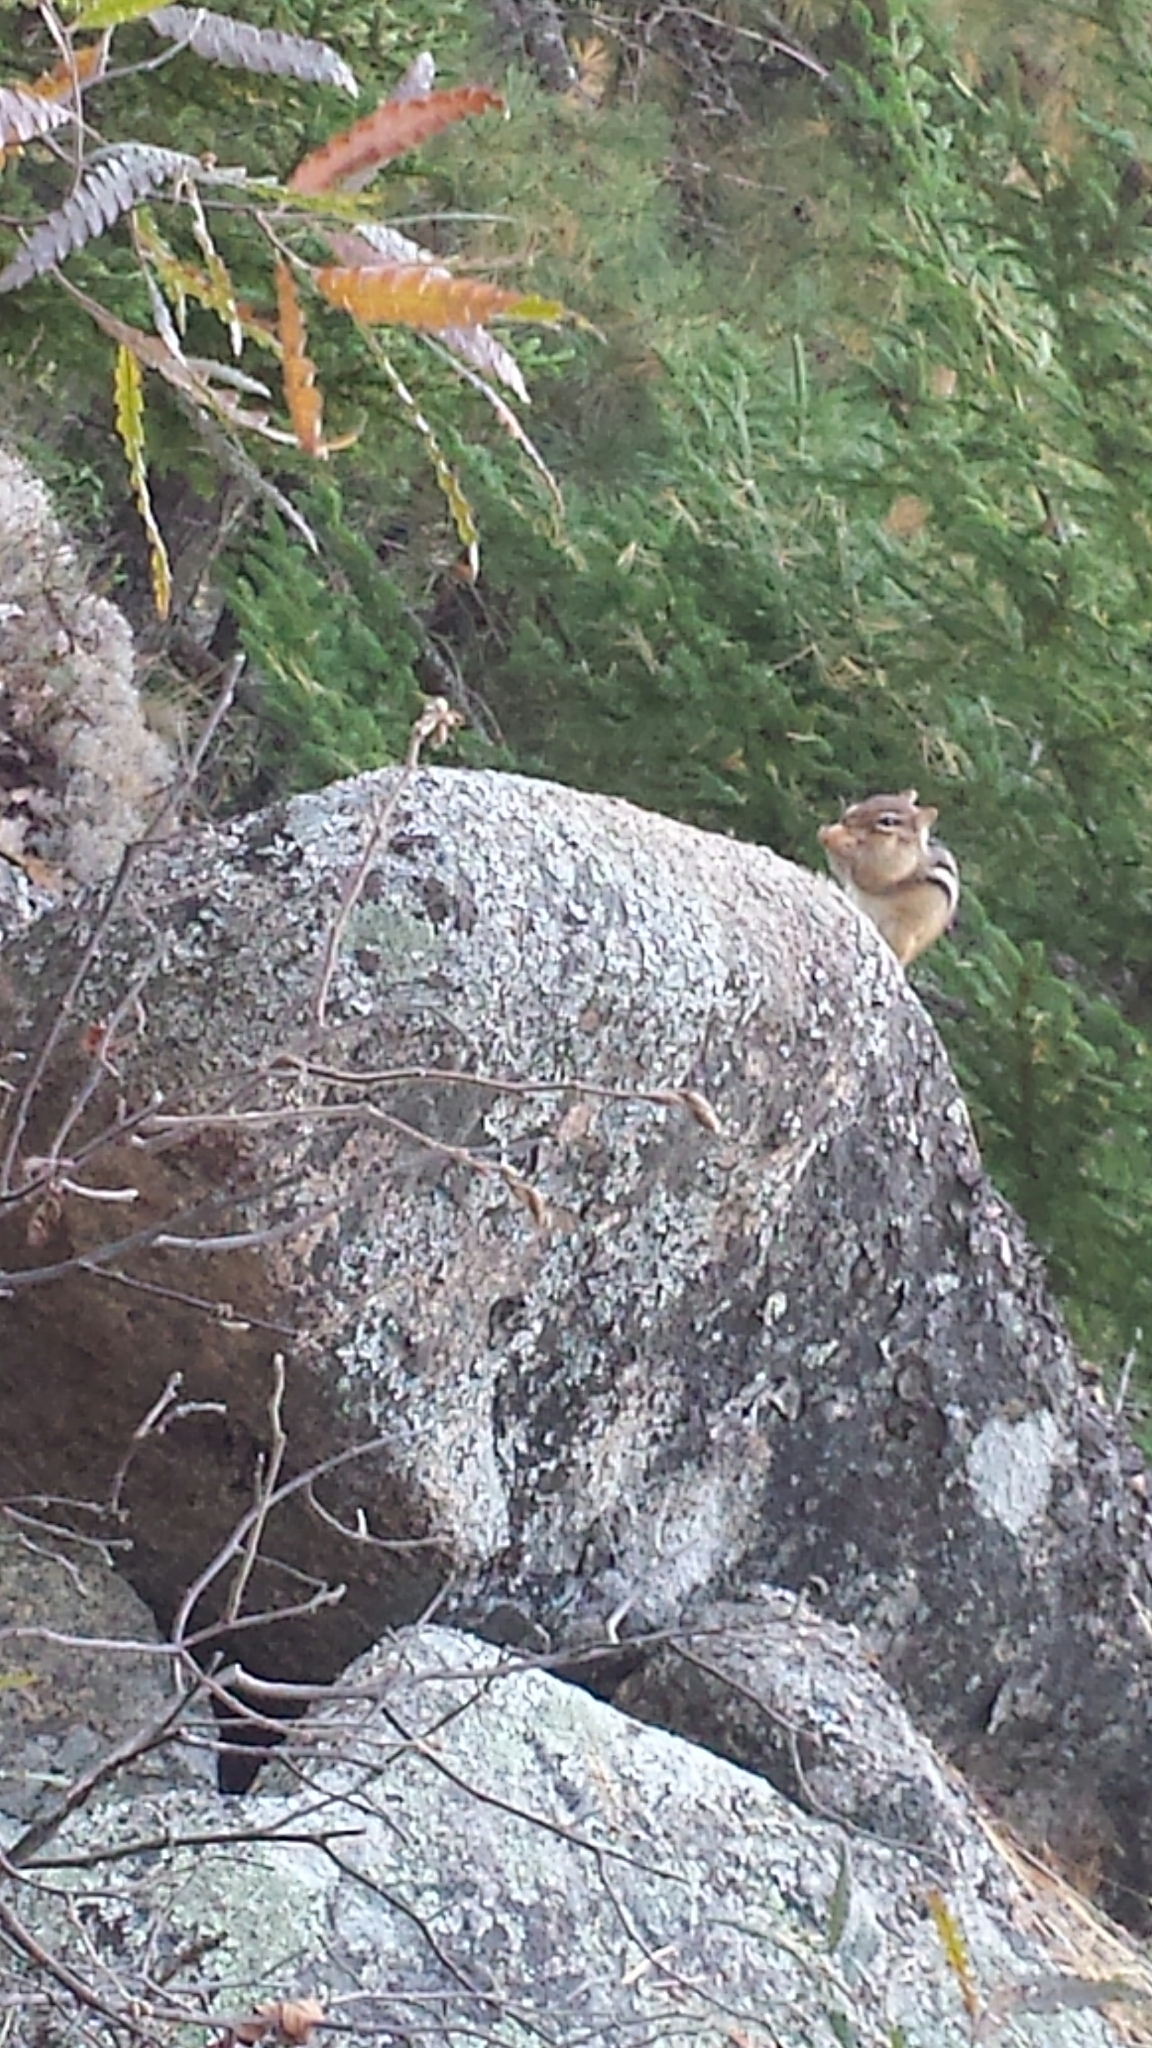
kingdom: Animalia
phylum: Chordata
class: Mammalia
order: Rodentia
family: Sciuridae
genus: Tamias
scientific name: Tamias striatus
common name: Eastern chipmunk
